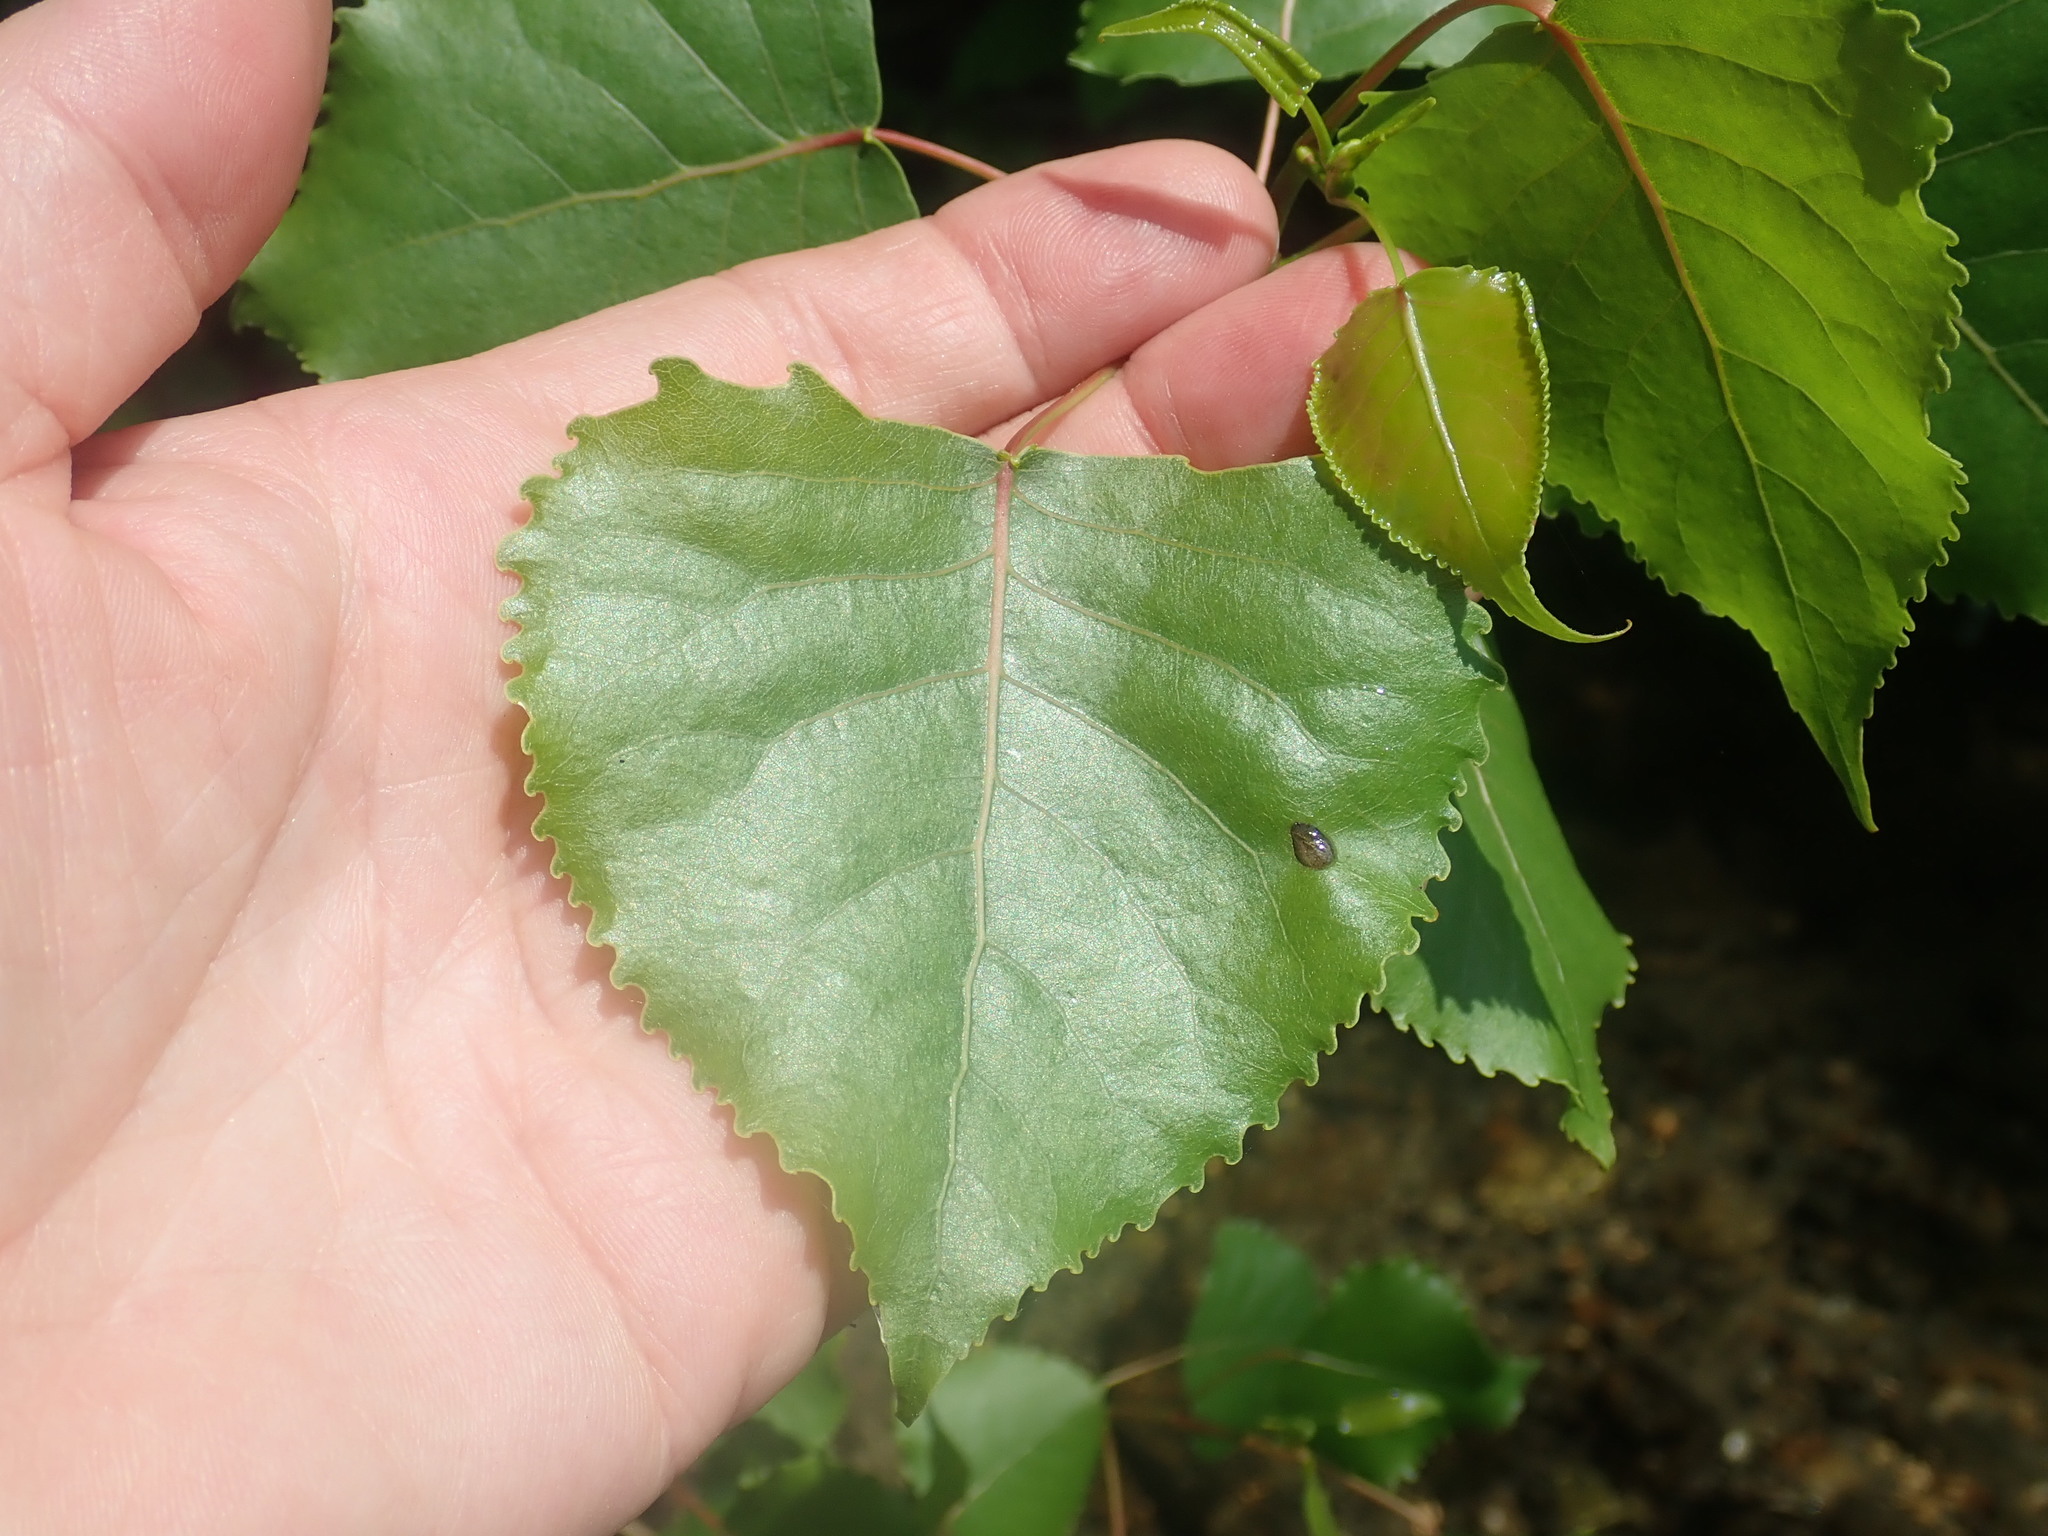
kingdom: Plantae
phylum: Tracheophyta
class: Magnoliopsida
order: Malpighiales
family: Salicaceae
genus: Populus
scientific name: Populus deltoides
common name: Eastern cottonwood
